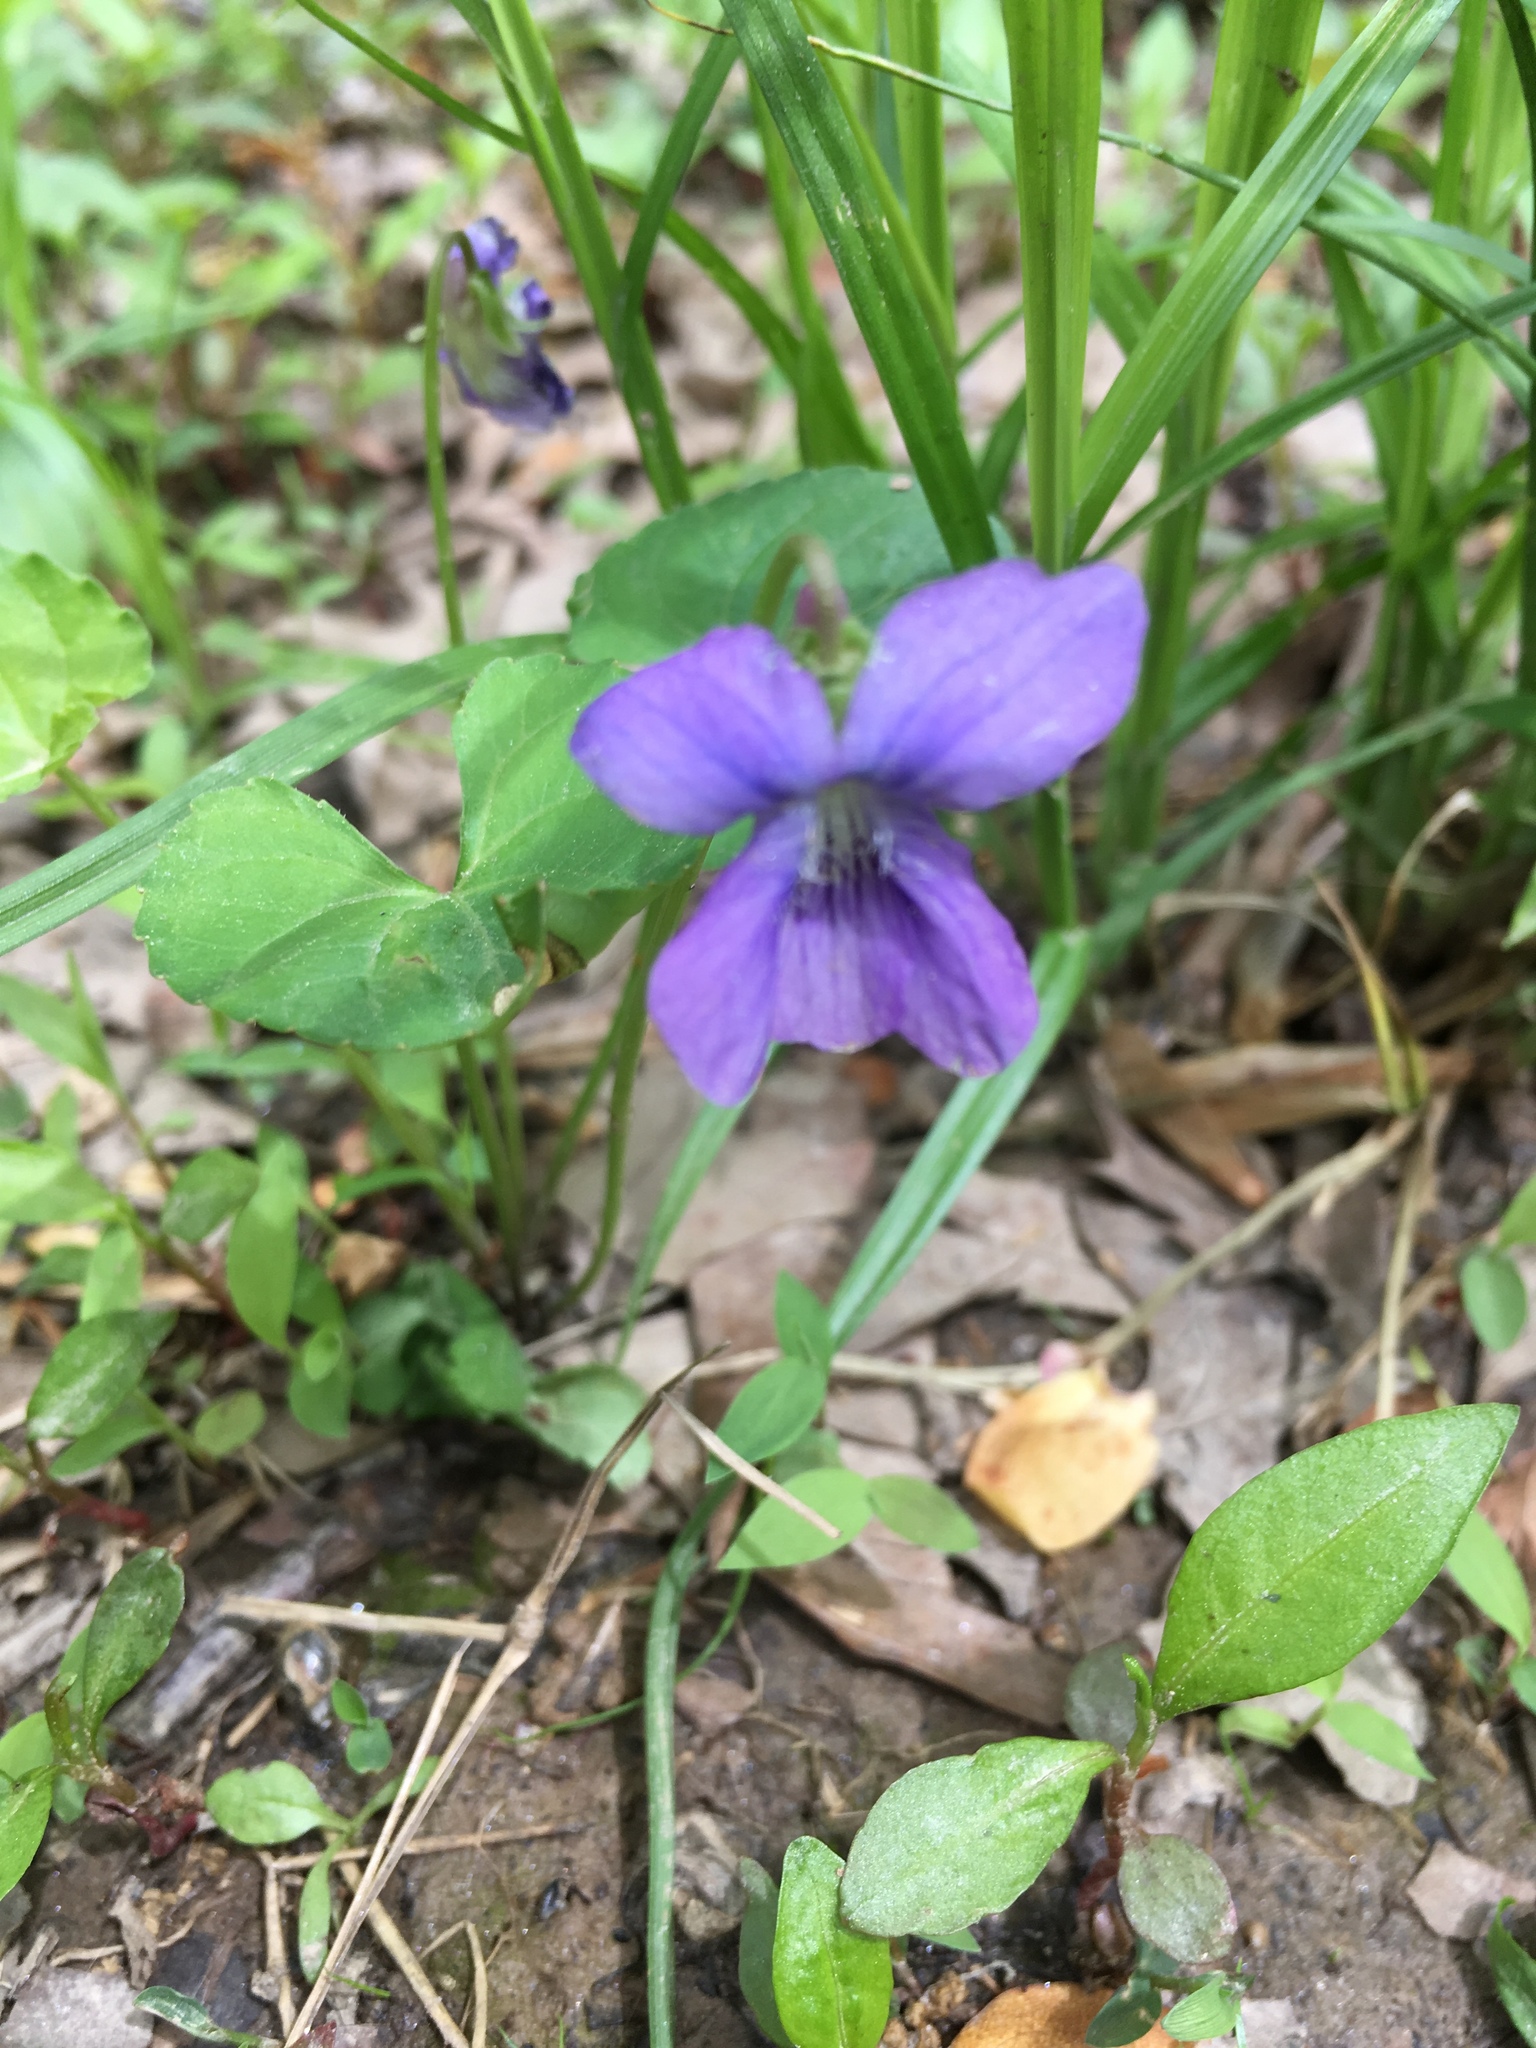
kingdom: Plantae
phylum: Tracheophyta
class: Magnoliopsida
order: Malpighiales
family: Violaceae
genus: Viola
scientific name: Viola sororia
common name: Dooryard violet
